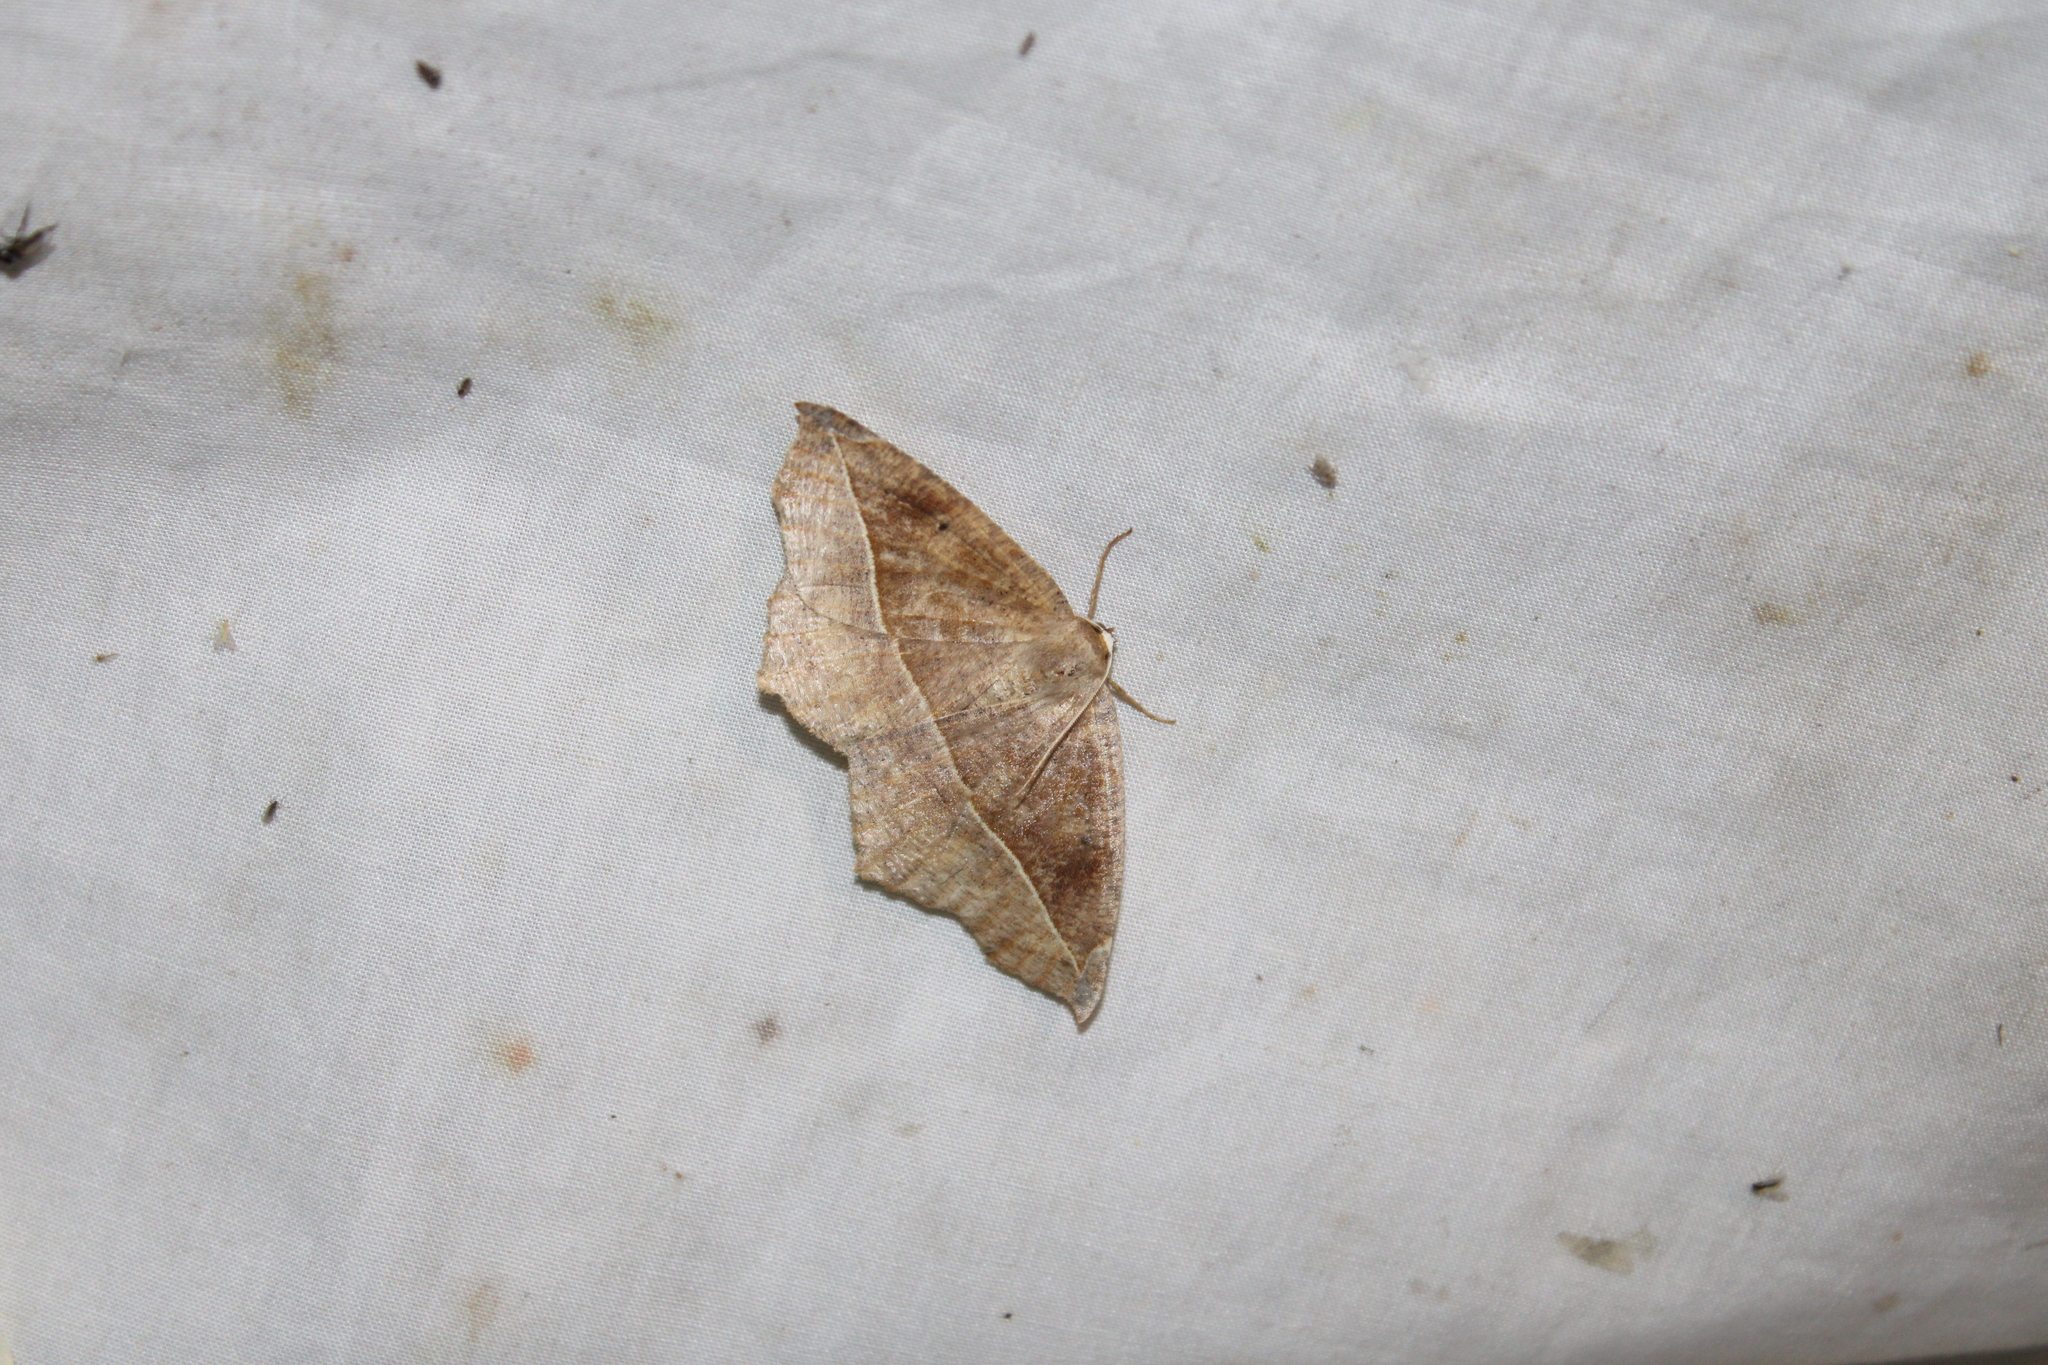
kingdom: Animalia
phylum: Arthropoda
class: Insecta
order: Lepidoptera
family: Geometridae
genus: Eutrapela
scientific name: Eutrapela clemataria
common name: Curved-toothed geometer
